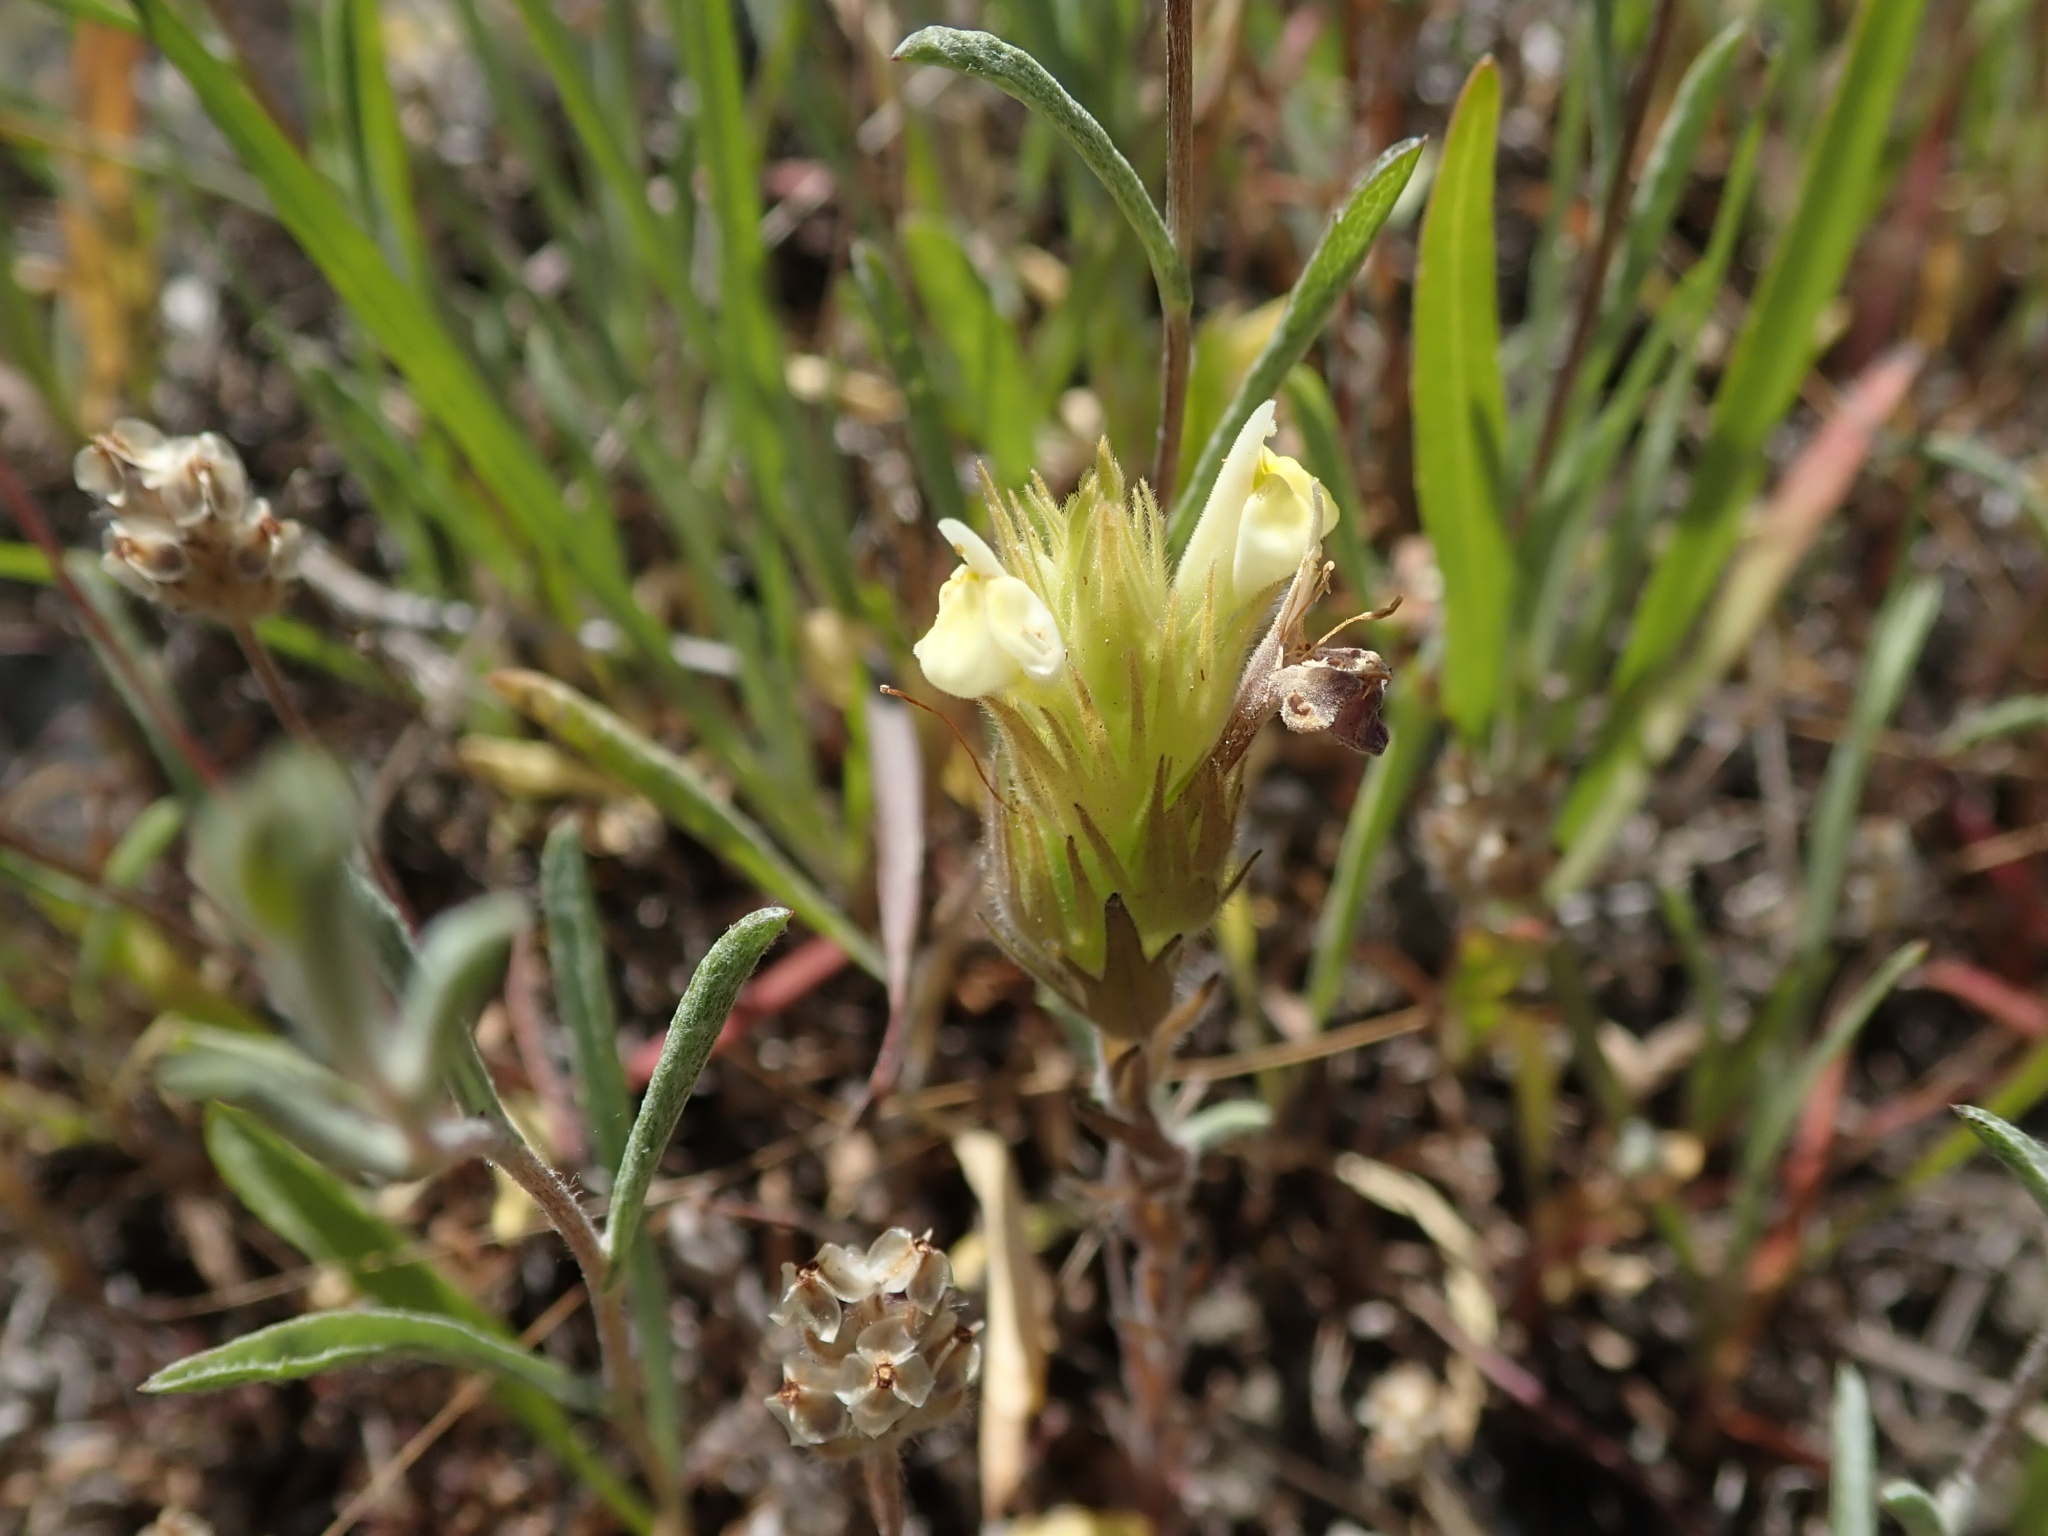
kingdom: Plantae
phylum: Tracheophyta
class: Magnoliopsida
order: Lamiales
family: Orobanchaceae
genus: Castilleja
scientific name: Castilleja rubicundula
